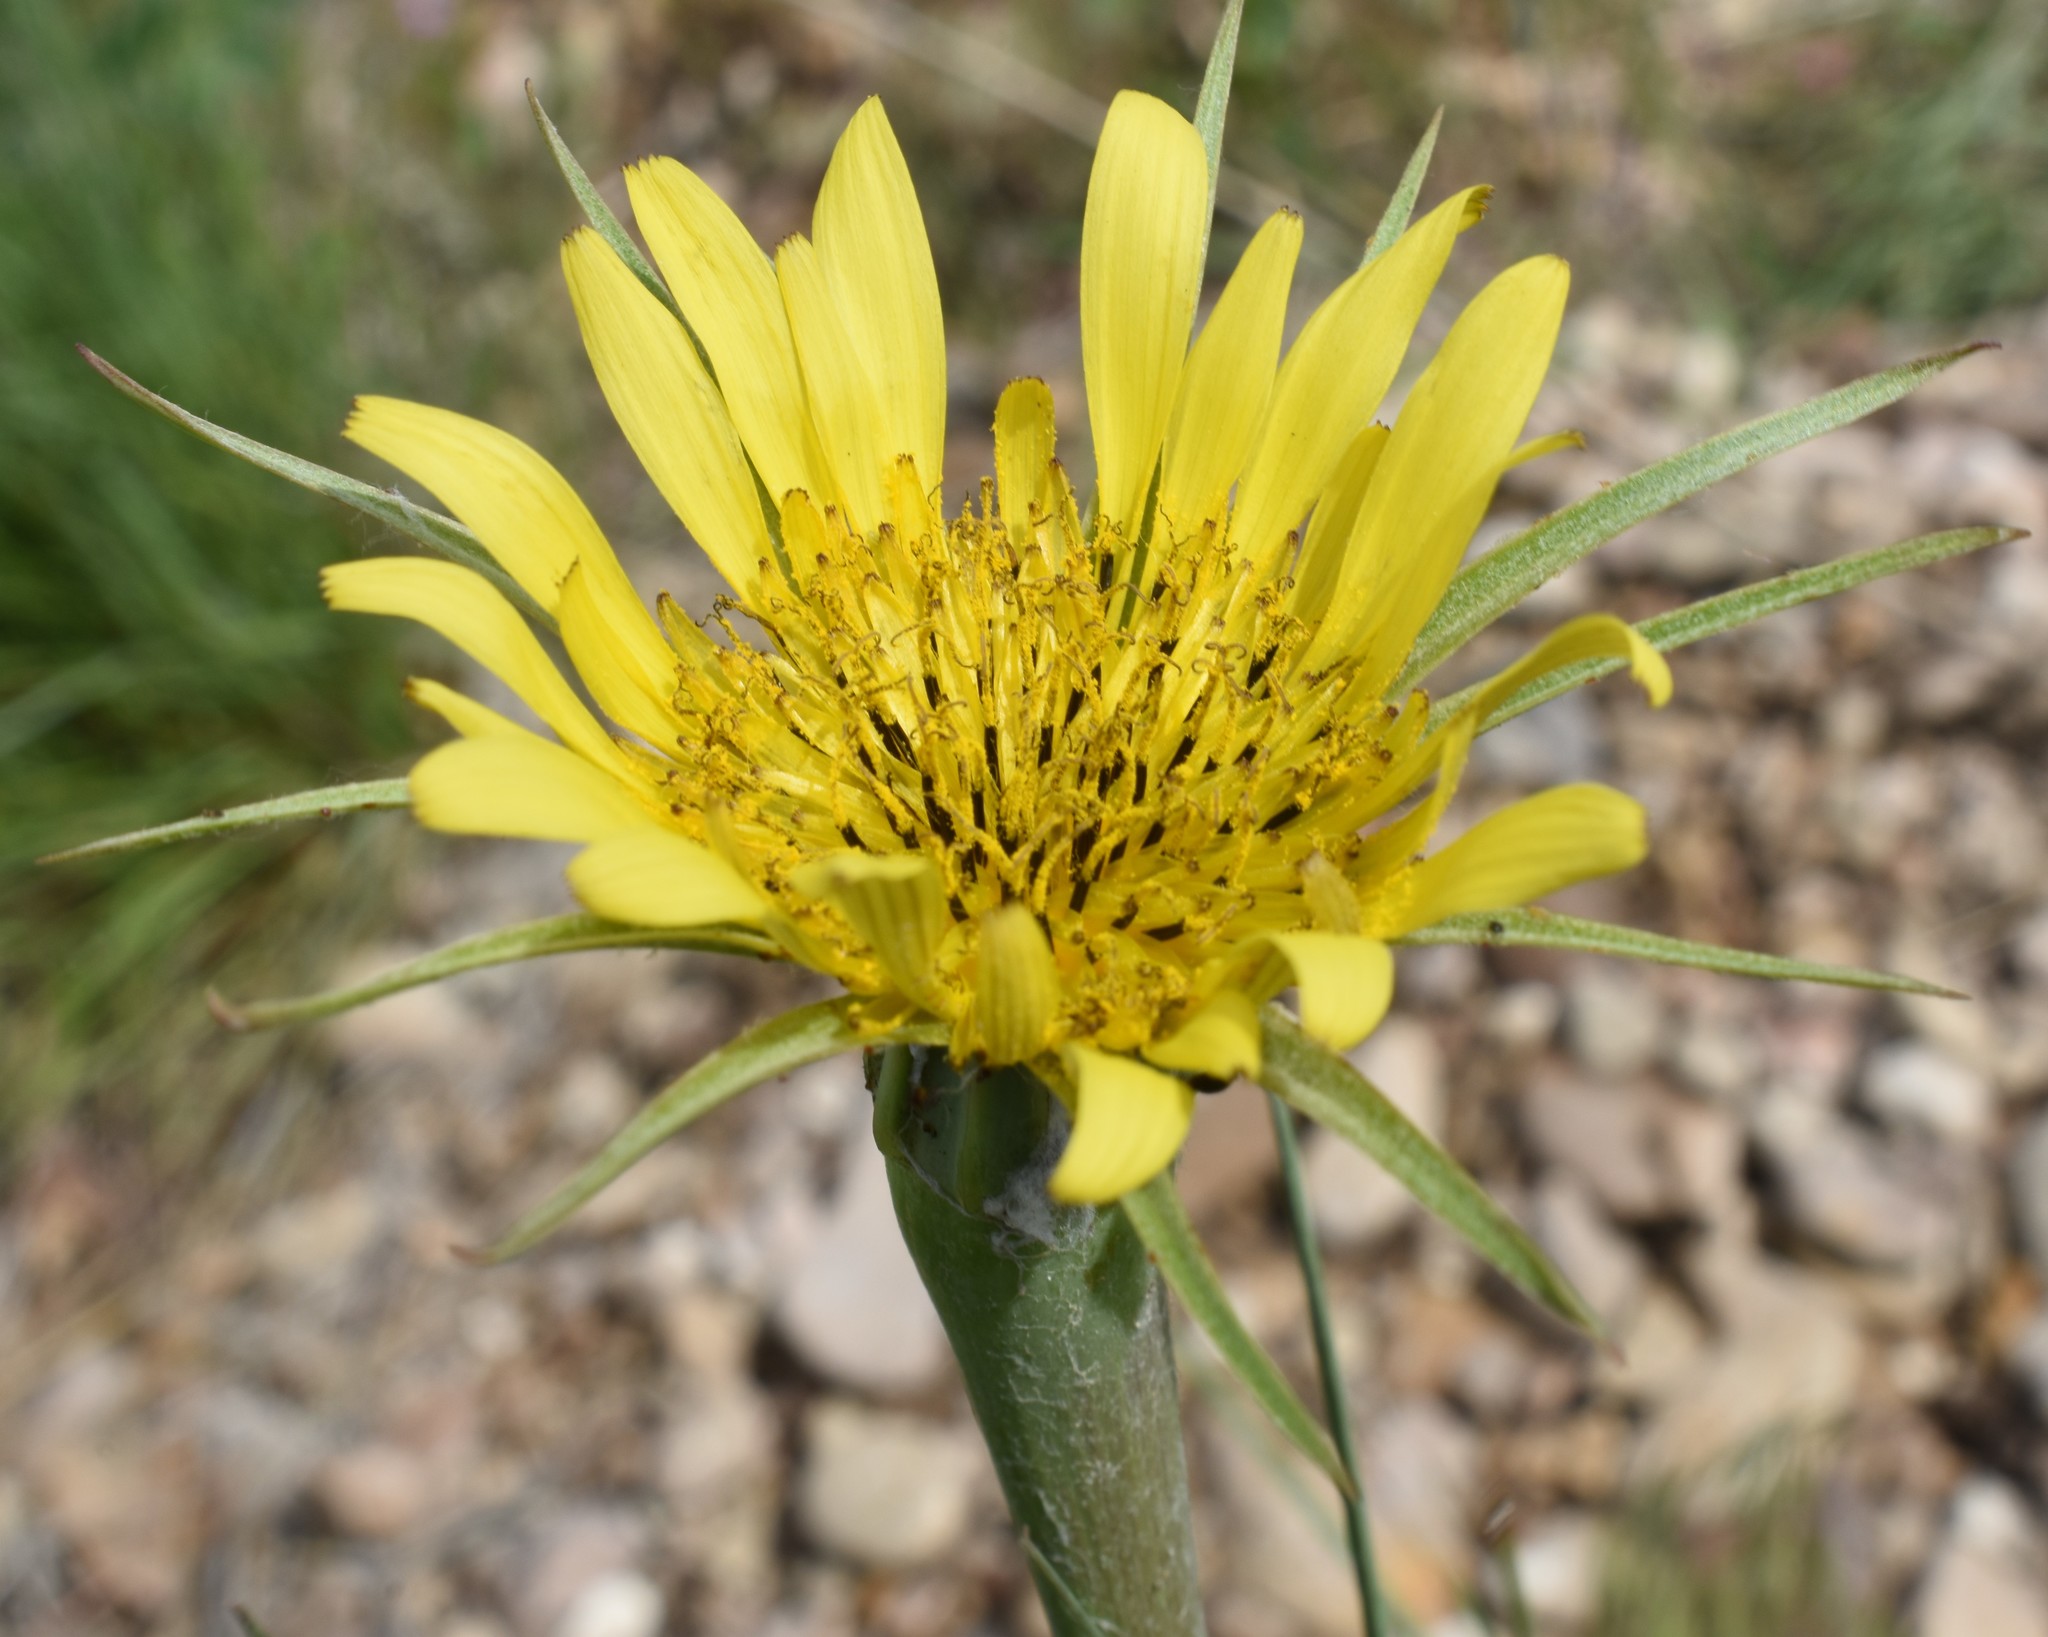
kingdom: Plantae
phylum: Tracheophyta
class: Magnoliopsida
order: Asterales
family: Asteraceae
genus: Tragopogon
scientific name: Tragopogon dubius
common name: Yellow salsify
